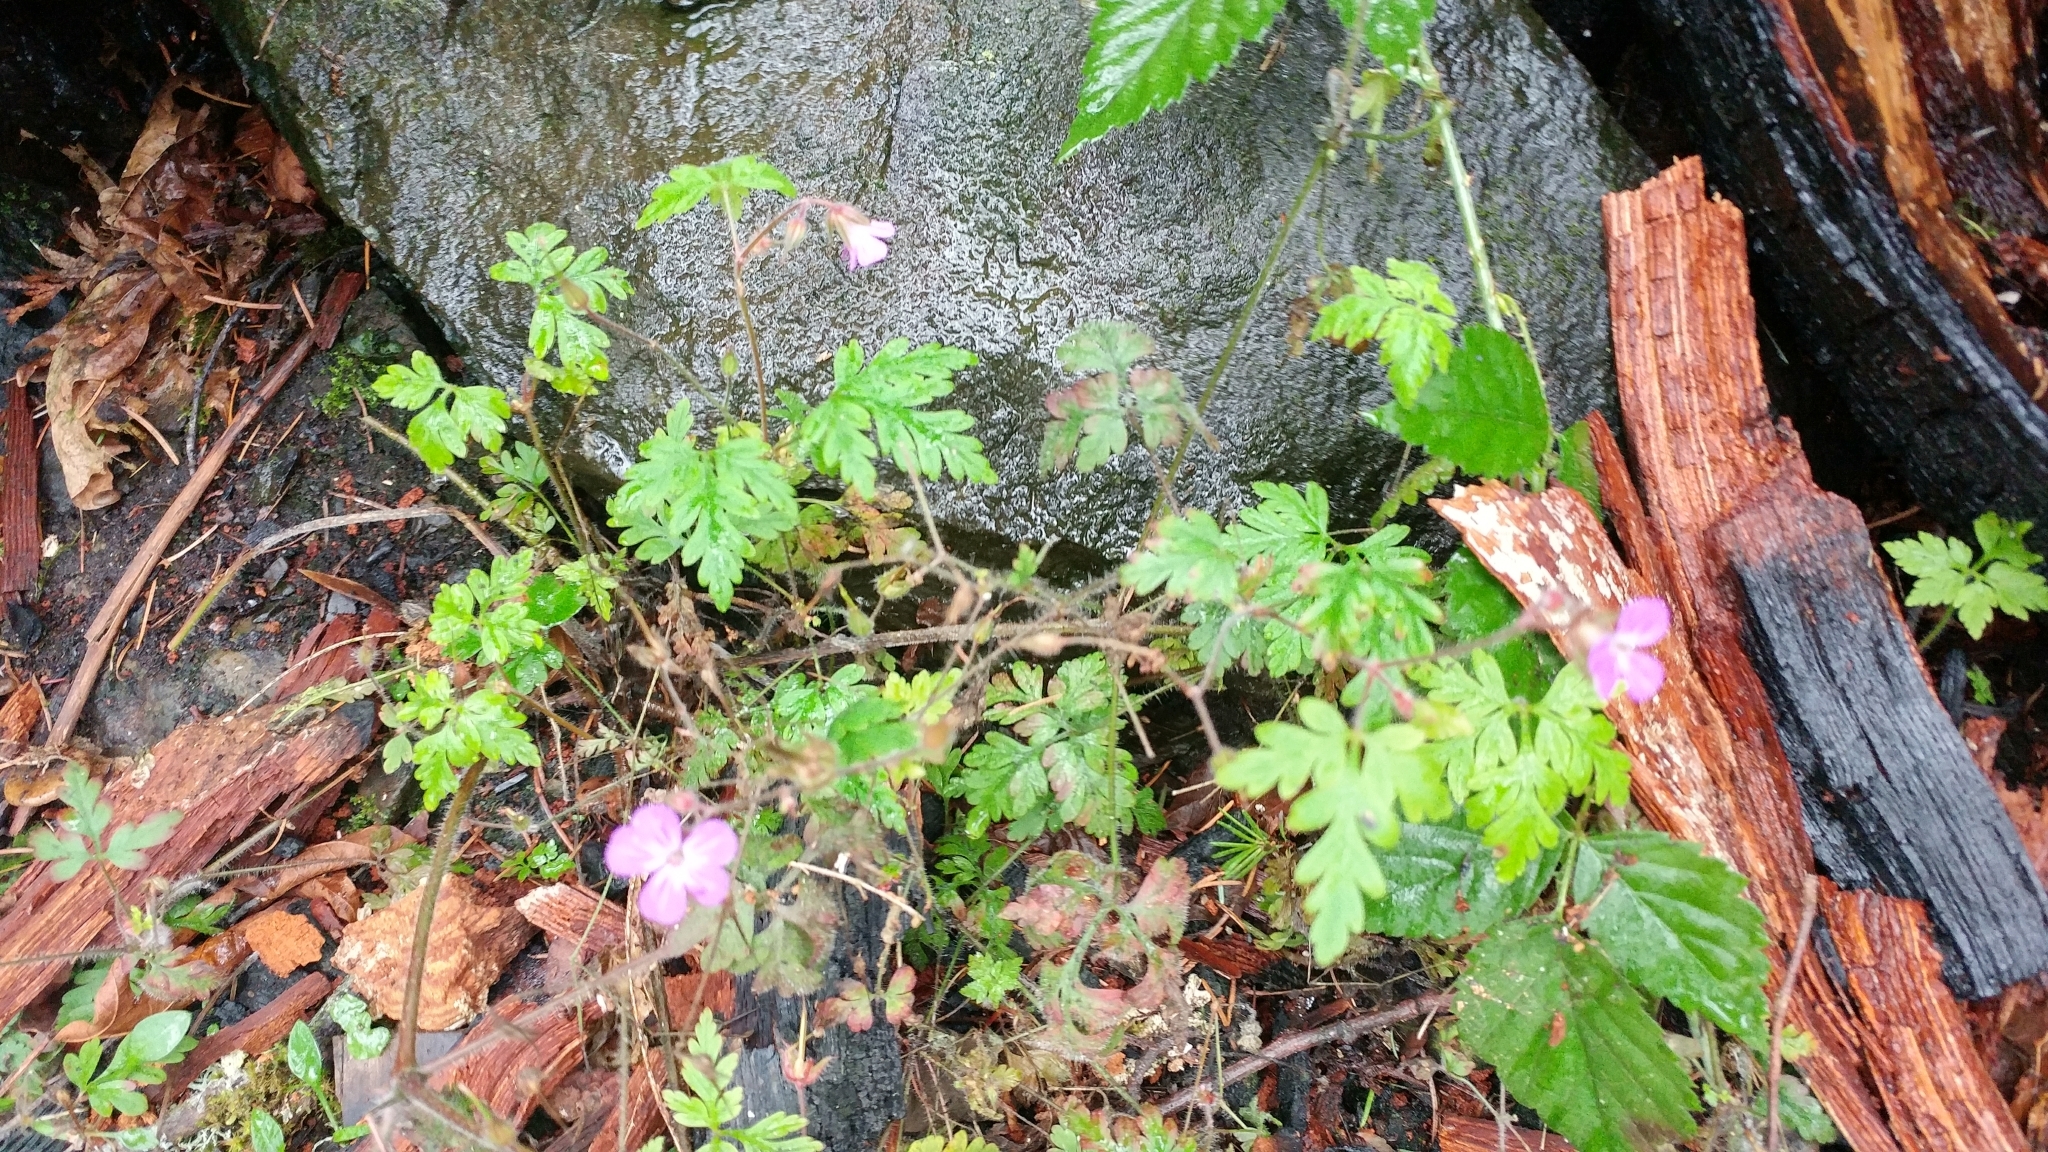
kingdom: Plantae
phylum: Tracheophyta
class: Magnoliopsida
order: Geraniales
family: Geraniaceae
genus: Geranium
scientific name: Geranium robertianum
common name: Herb-robert
